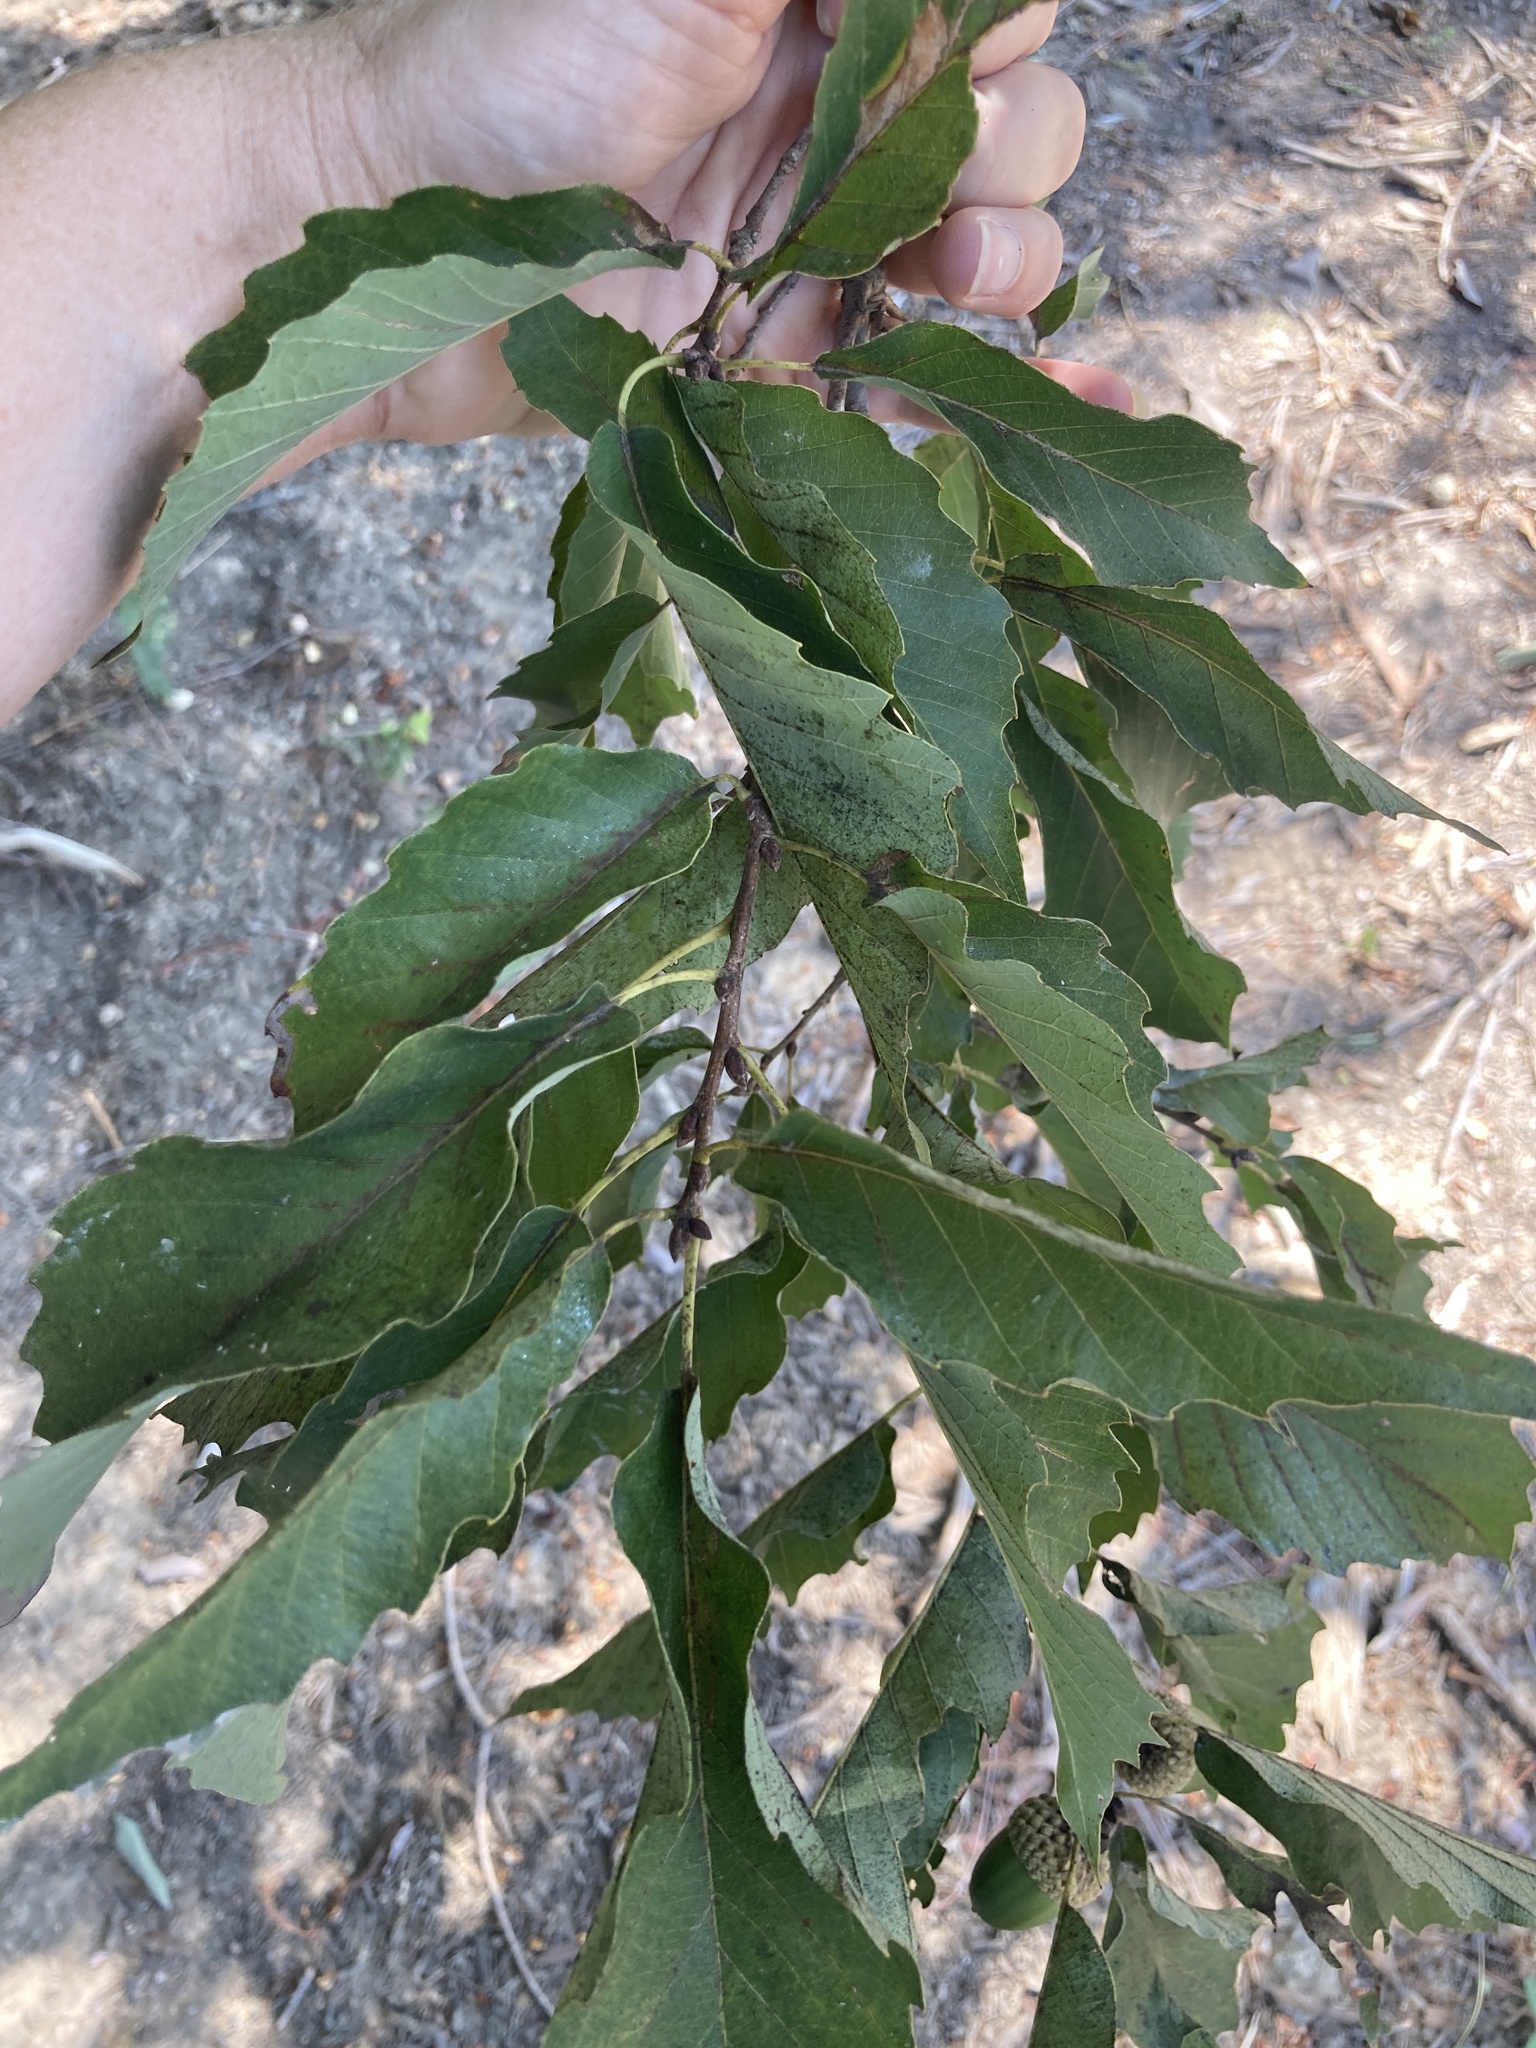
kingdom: Plantae
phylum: Tracheophyta
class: Magnoliopsida
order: Fagales
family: Fagaceae
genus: Quercus
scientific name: Quercus muehlenbergii
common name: Chinkapin oak
